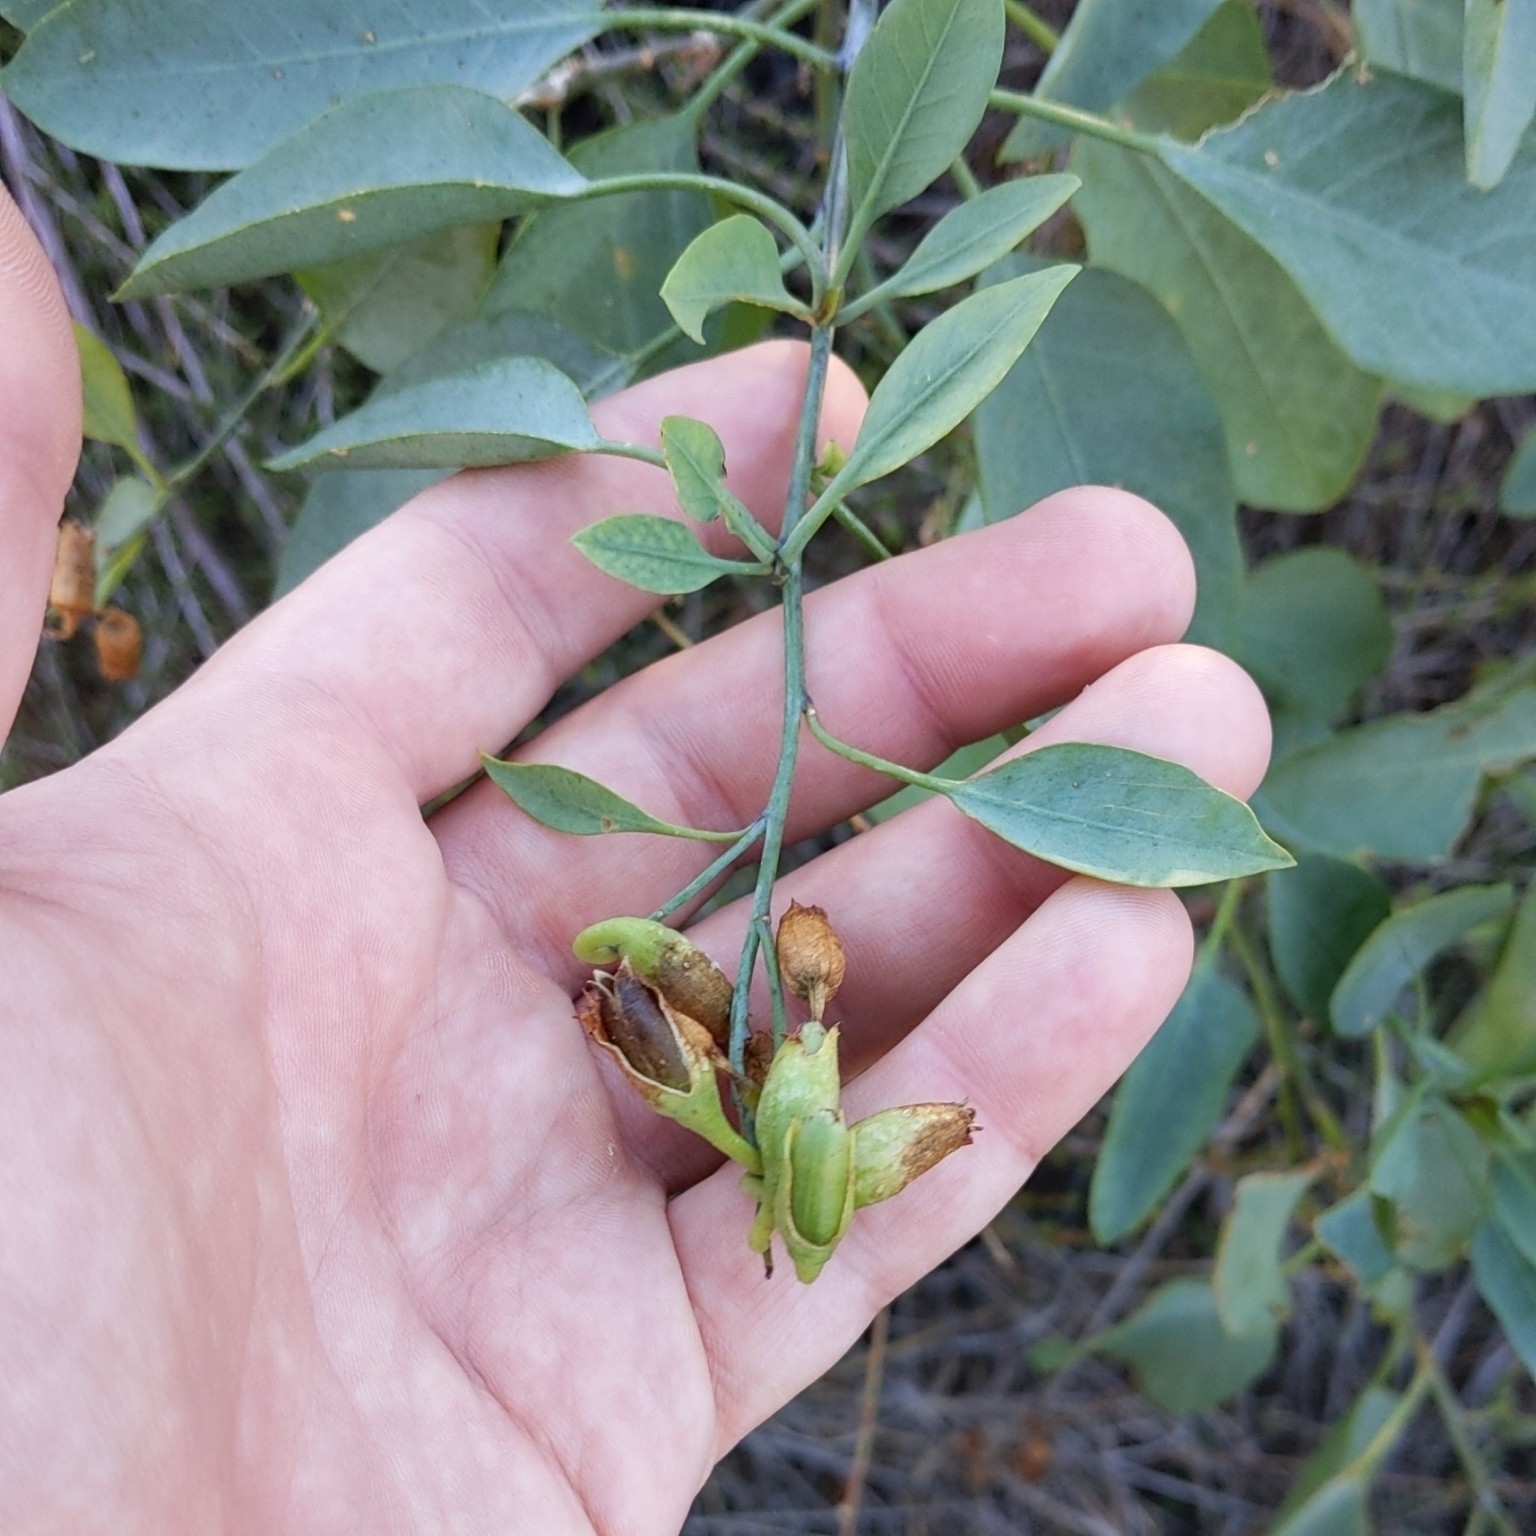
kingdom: Plantae
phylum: Tracheophyta
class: Magnoliopsida
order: Solanales
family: Solanaceae
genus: Nicotiana
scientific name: Nicotiana glauca
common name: Tree tobacco
